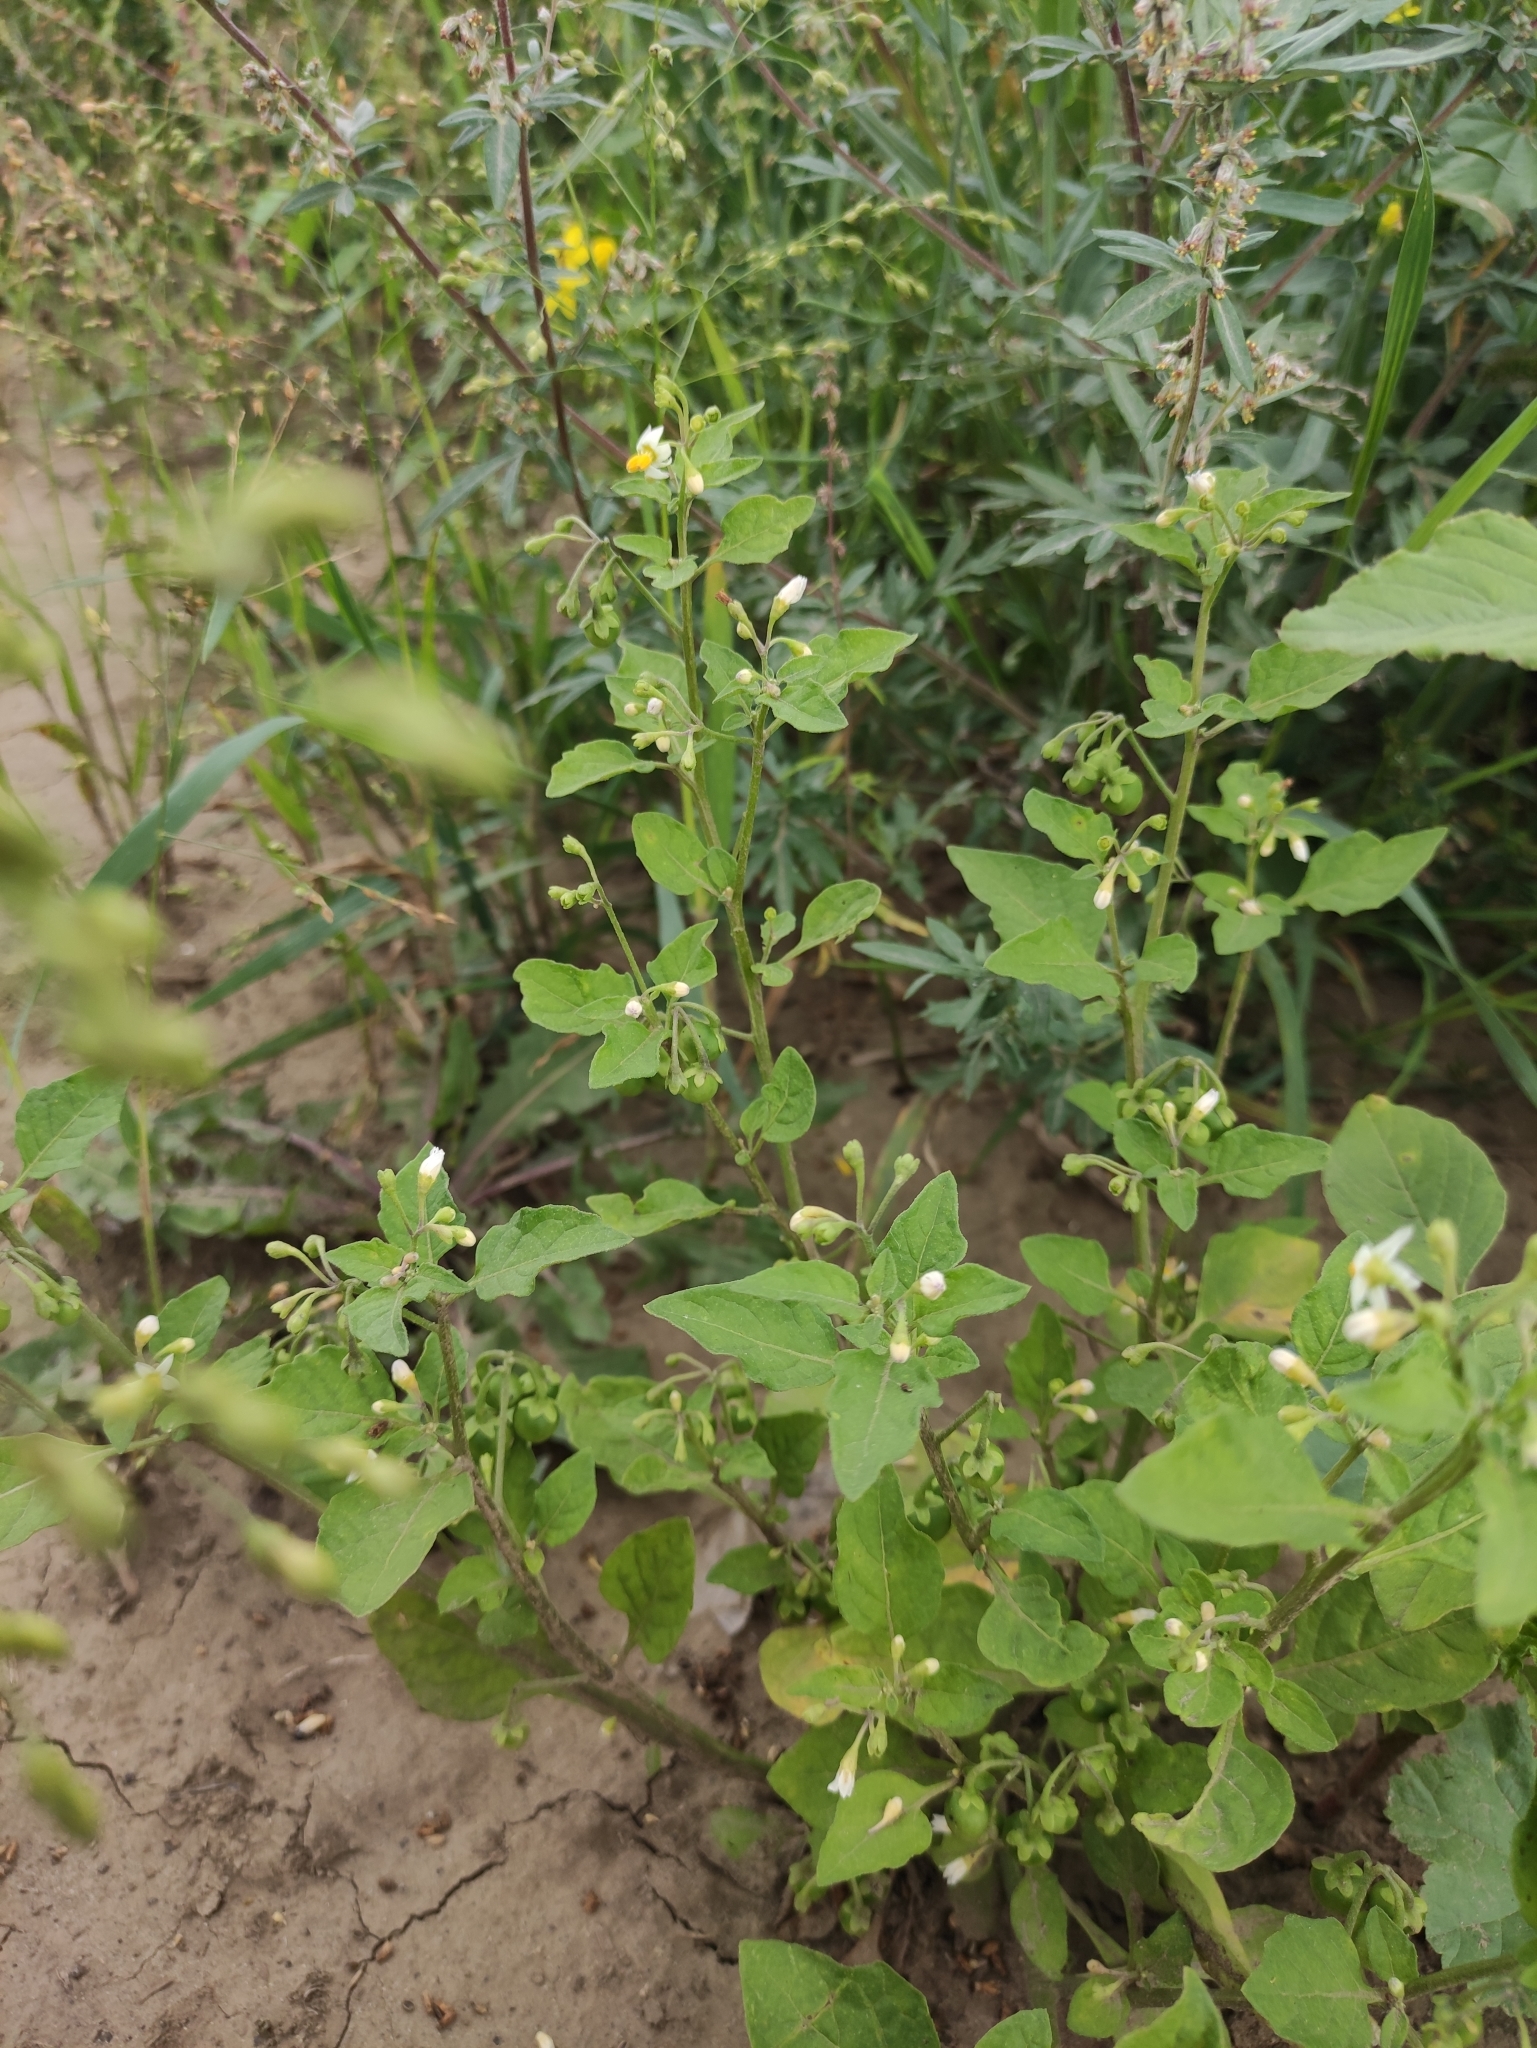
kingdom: Plantae
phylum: Tracheophyta
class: Magnoliopsida
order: Solanales
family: Solanaceae
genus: Solanum
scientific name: Solanum nigrum
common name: Black nightshade
